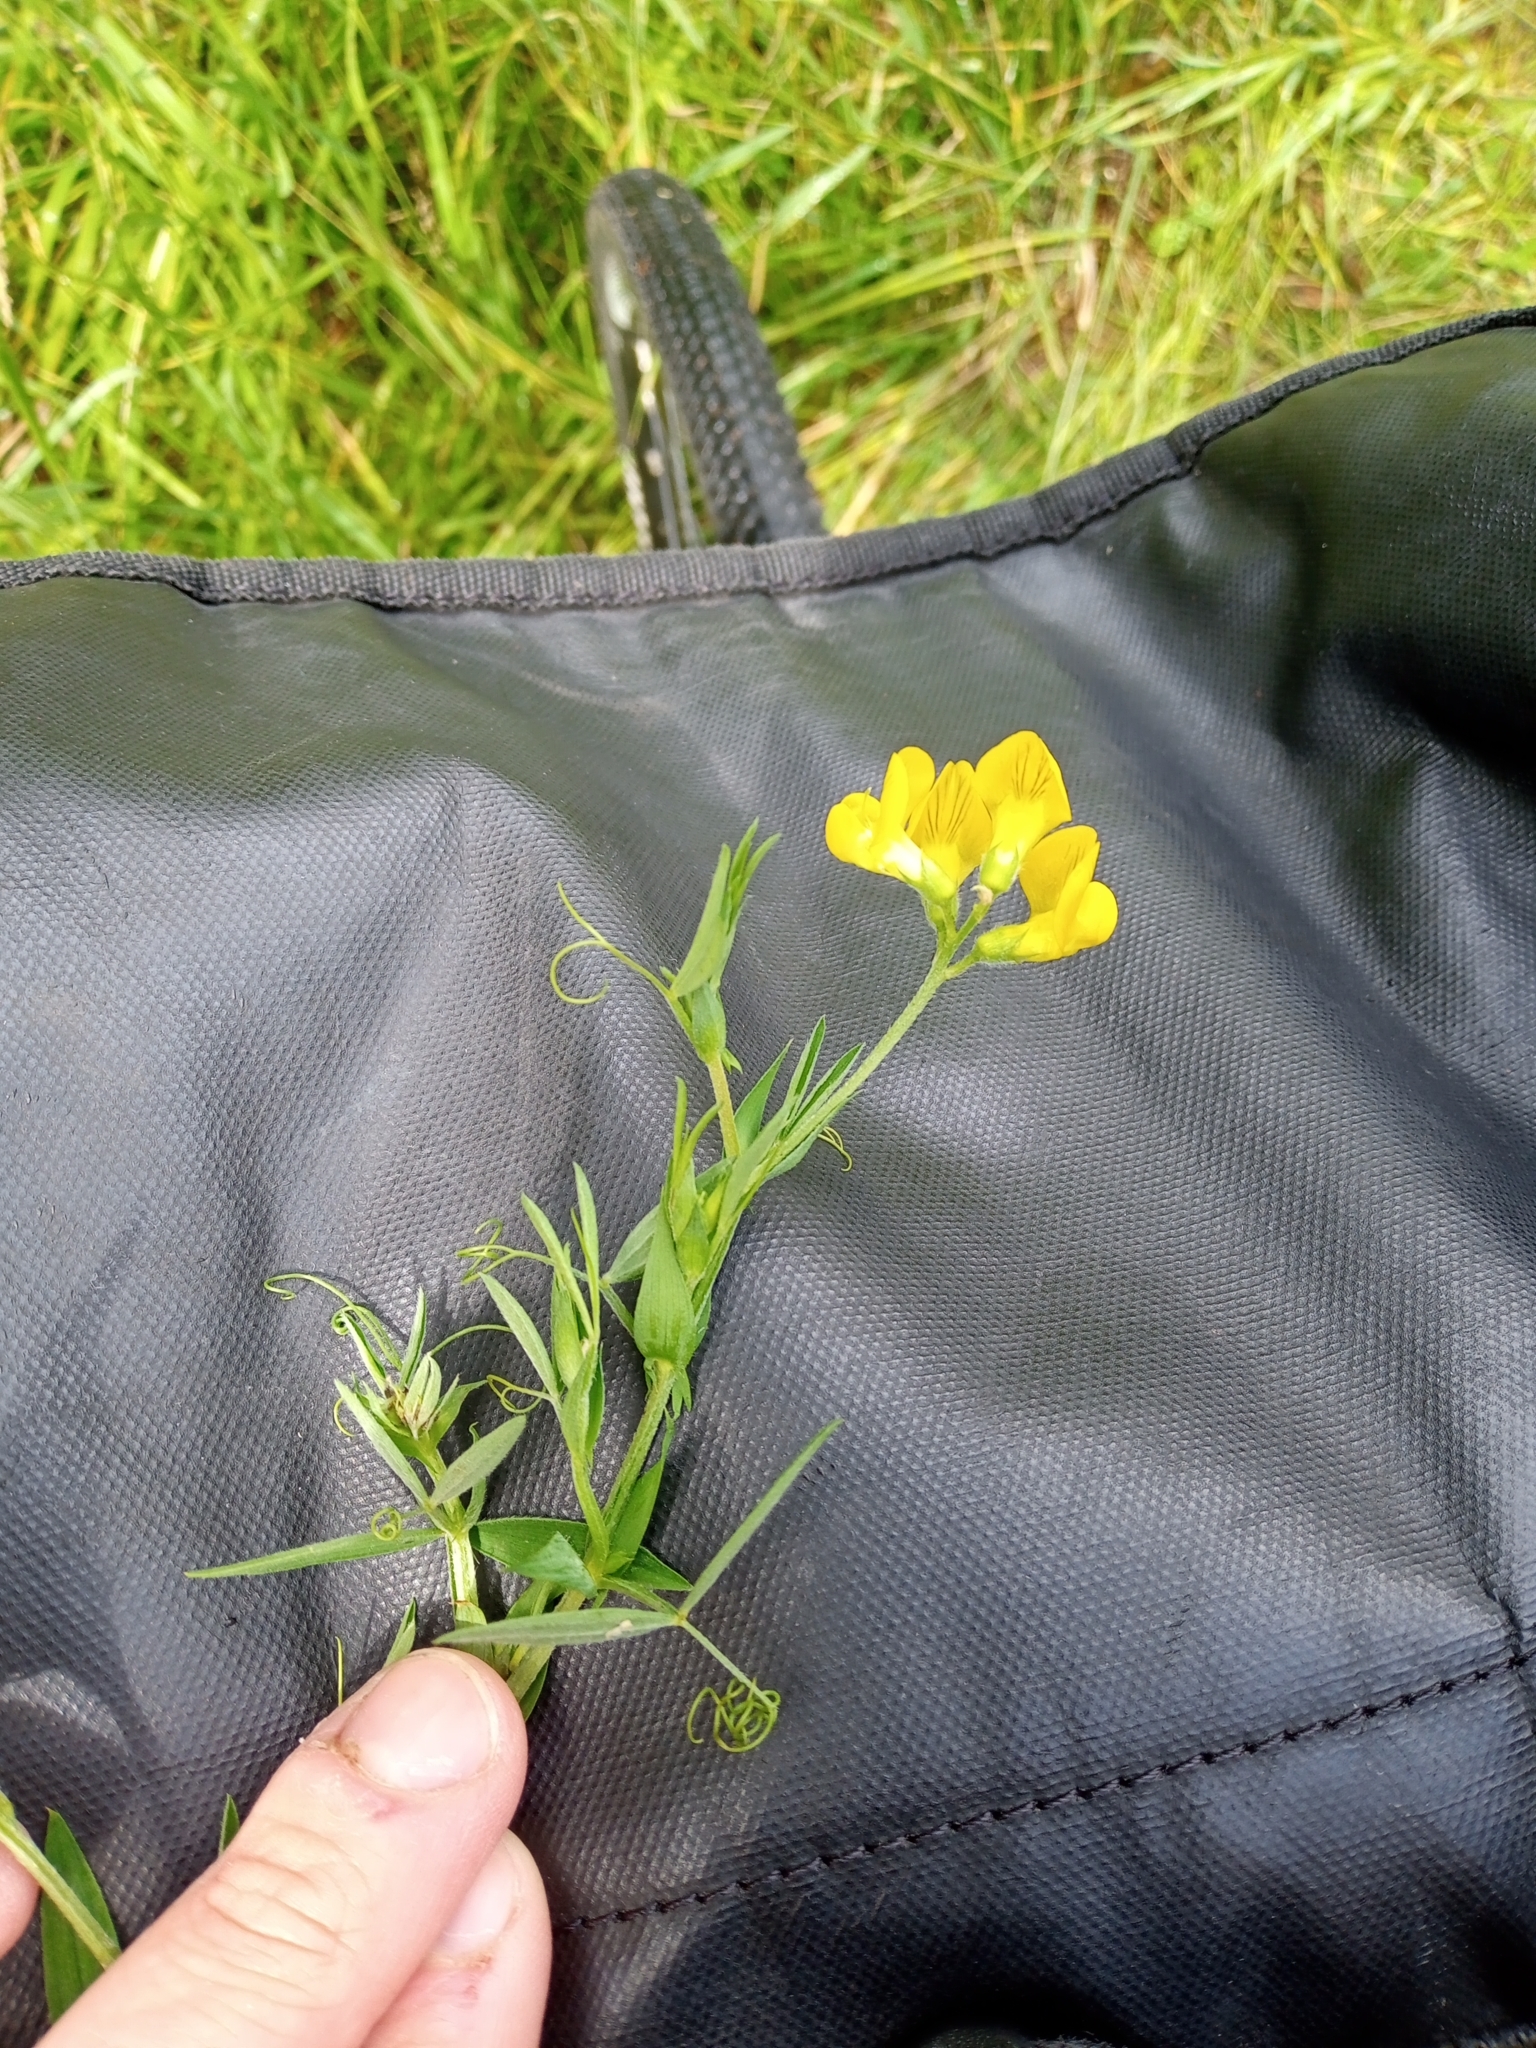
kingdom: Plantae
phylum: Tracheophyta
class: Magnoliopsida
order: Fabales
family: Fabaceae
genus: Lathyrus
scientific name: Lathyrus pratensis
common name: Meadow vetchling
